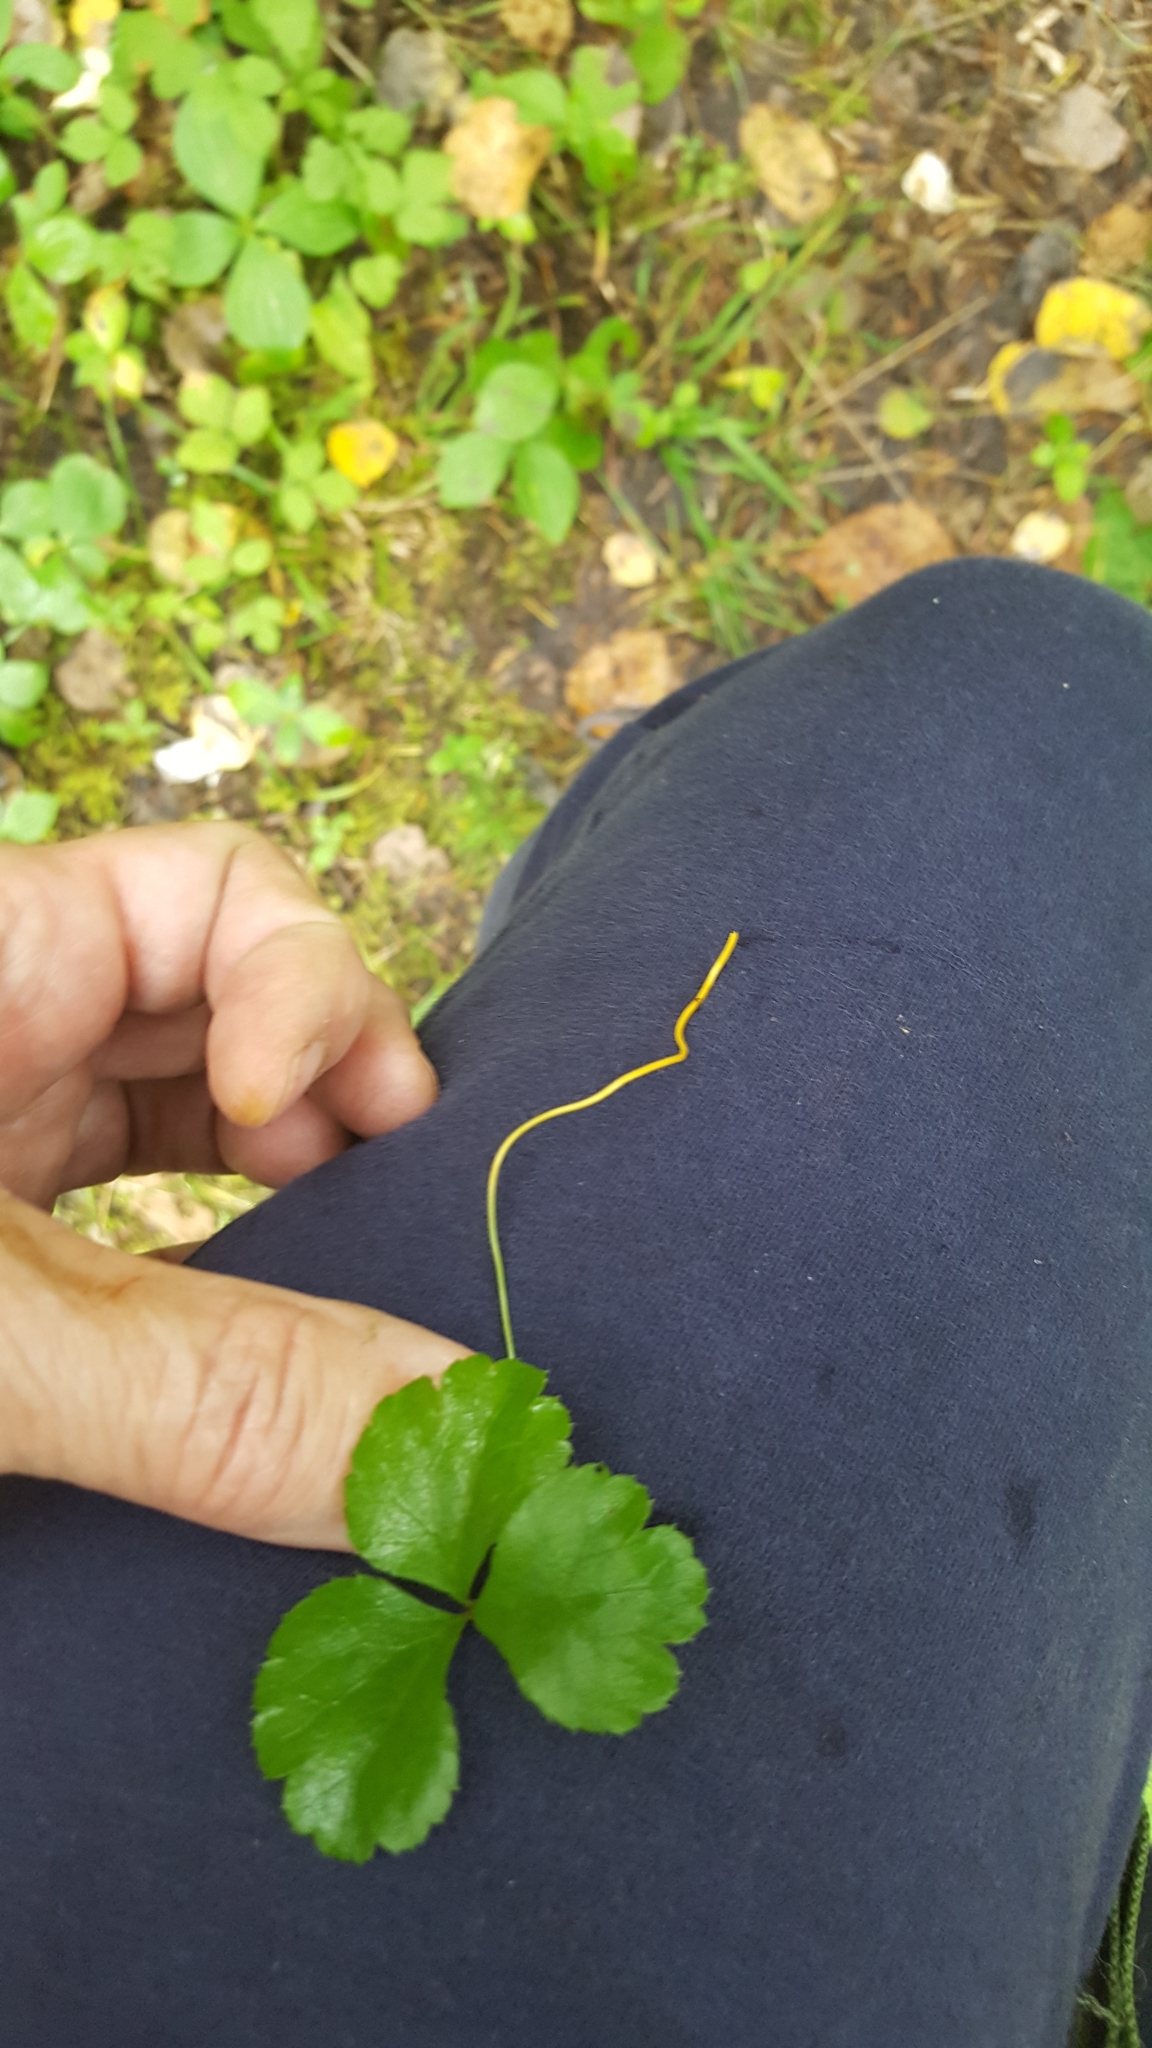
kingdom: Plantae
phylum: Tracheophyta
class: Magnoliopsida
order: Ranunculales
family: Ranunculaceae
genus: Coptis
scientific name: Coptis trifolia
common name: Canker-root
